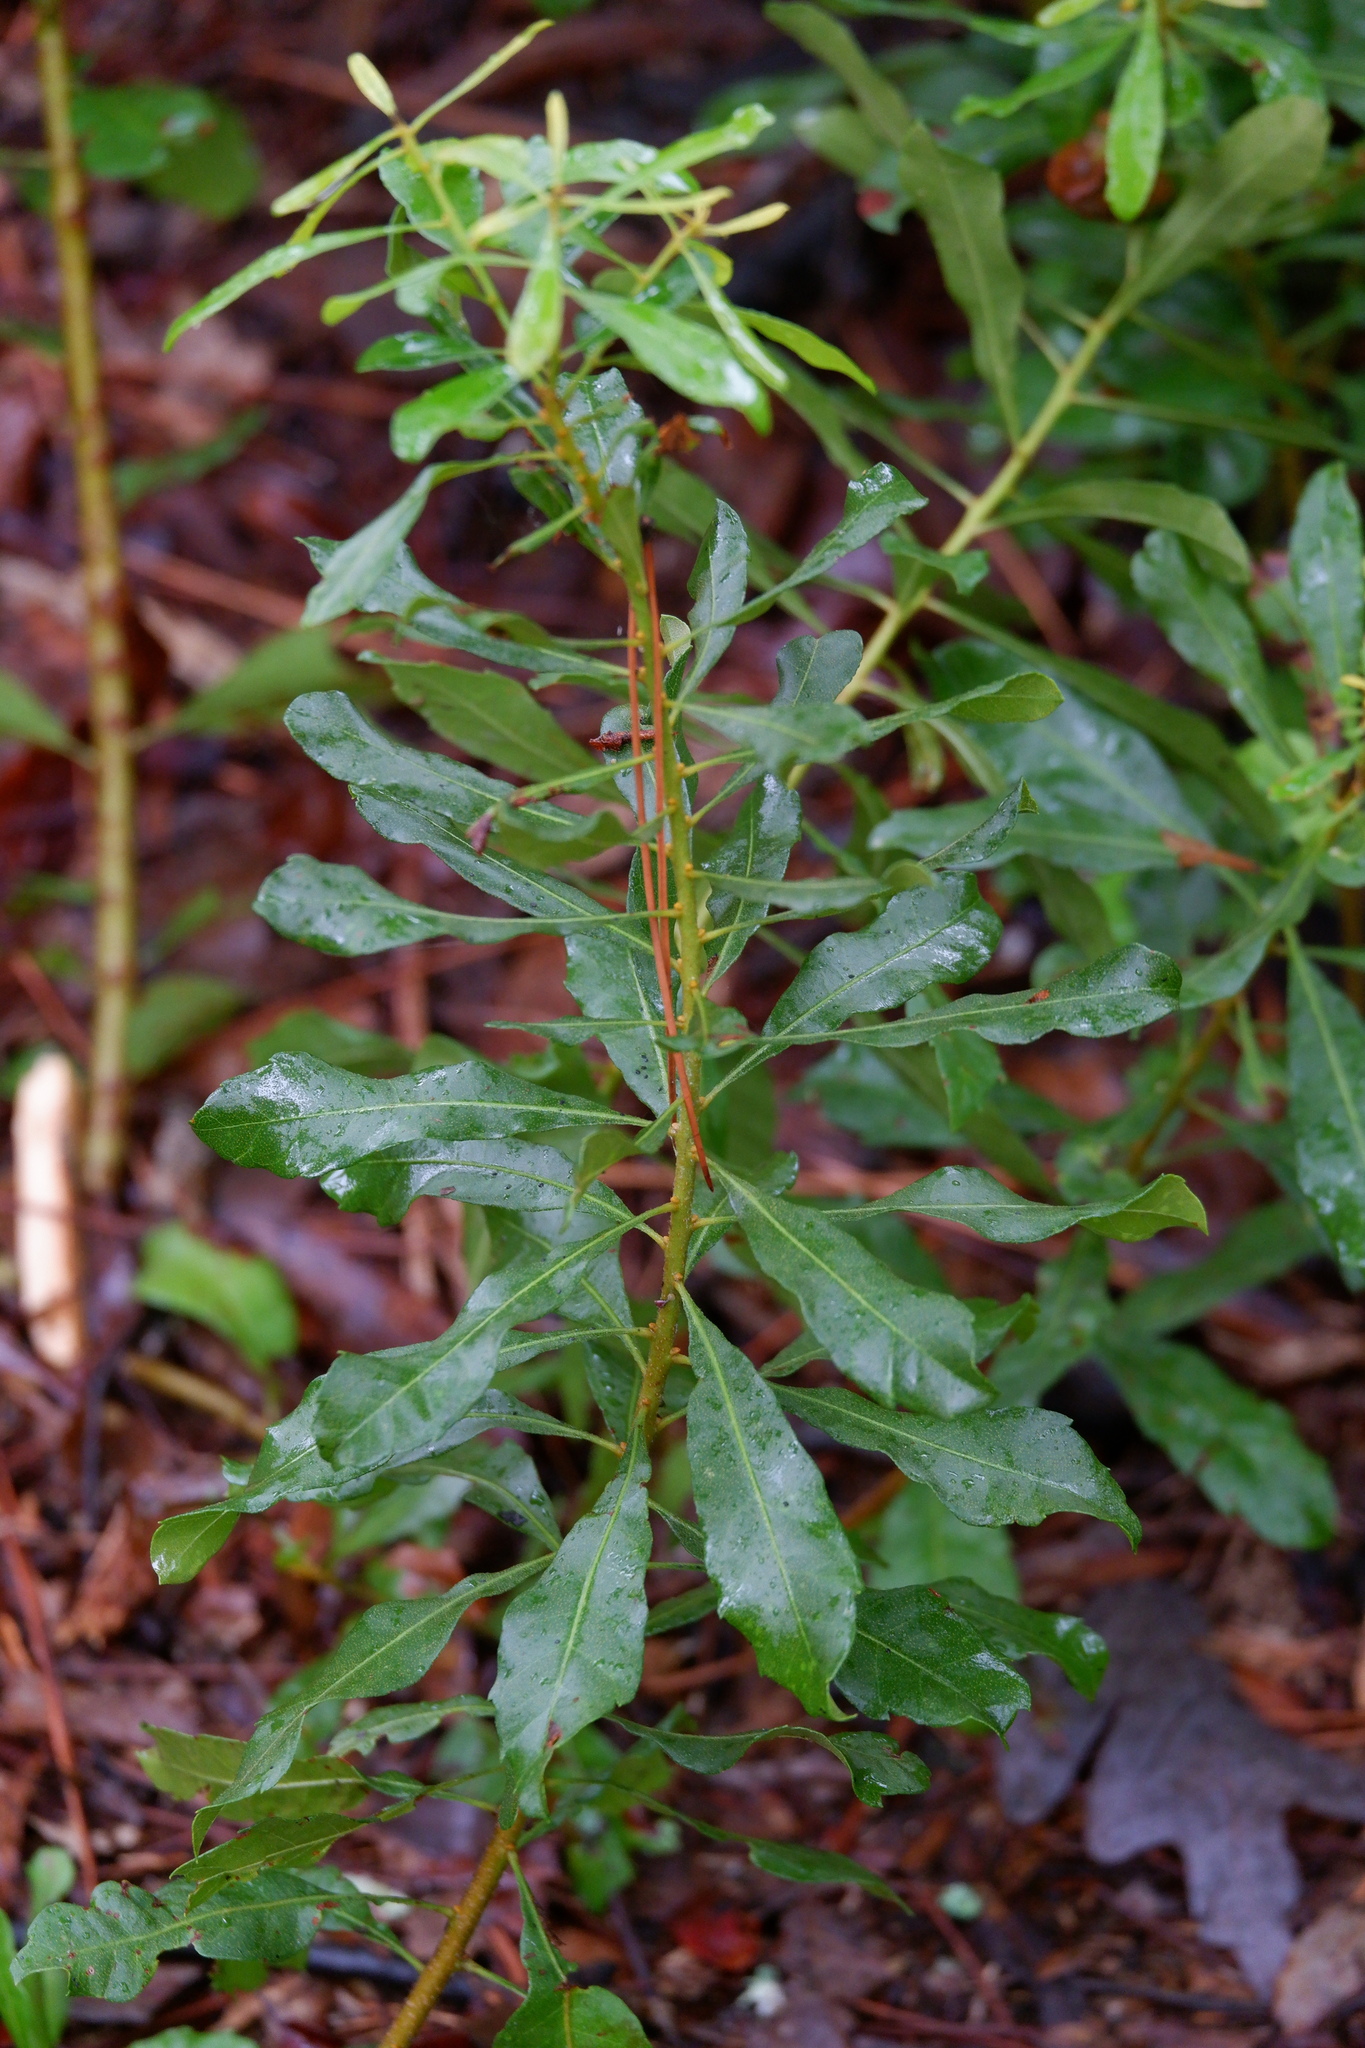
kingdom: Plantae
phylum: Tracheophyta
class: Magnoliopsida
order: Fagales
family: Myricaceae
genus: Morella
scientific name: Morella cerifera
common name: Wax myrtle
